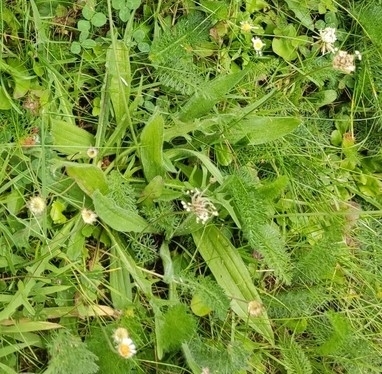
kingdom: Plantae
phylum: Tracheophyta
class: Magnoliopsida
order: Lamiales
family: Plantaginaceae
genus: Plantago
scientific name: Plantago lanceolata
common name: Ribwort plantain
